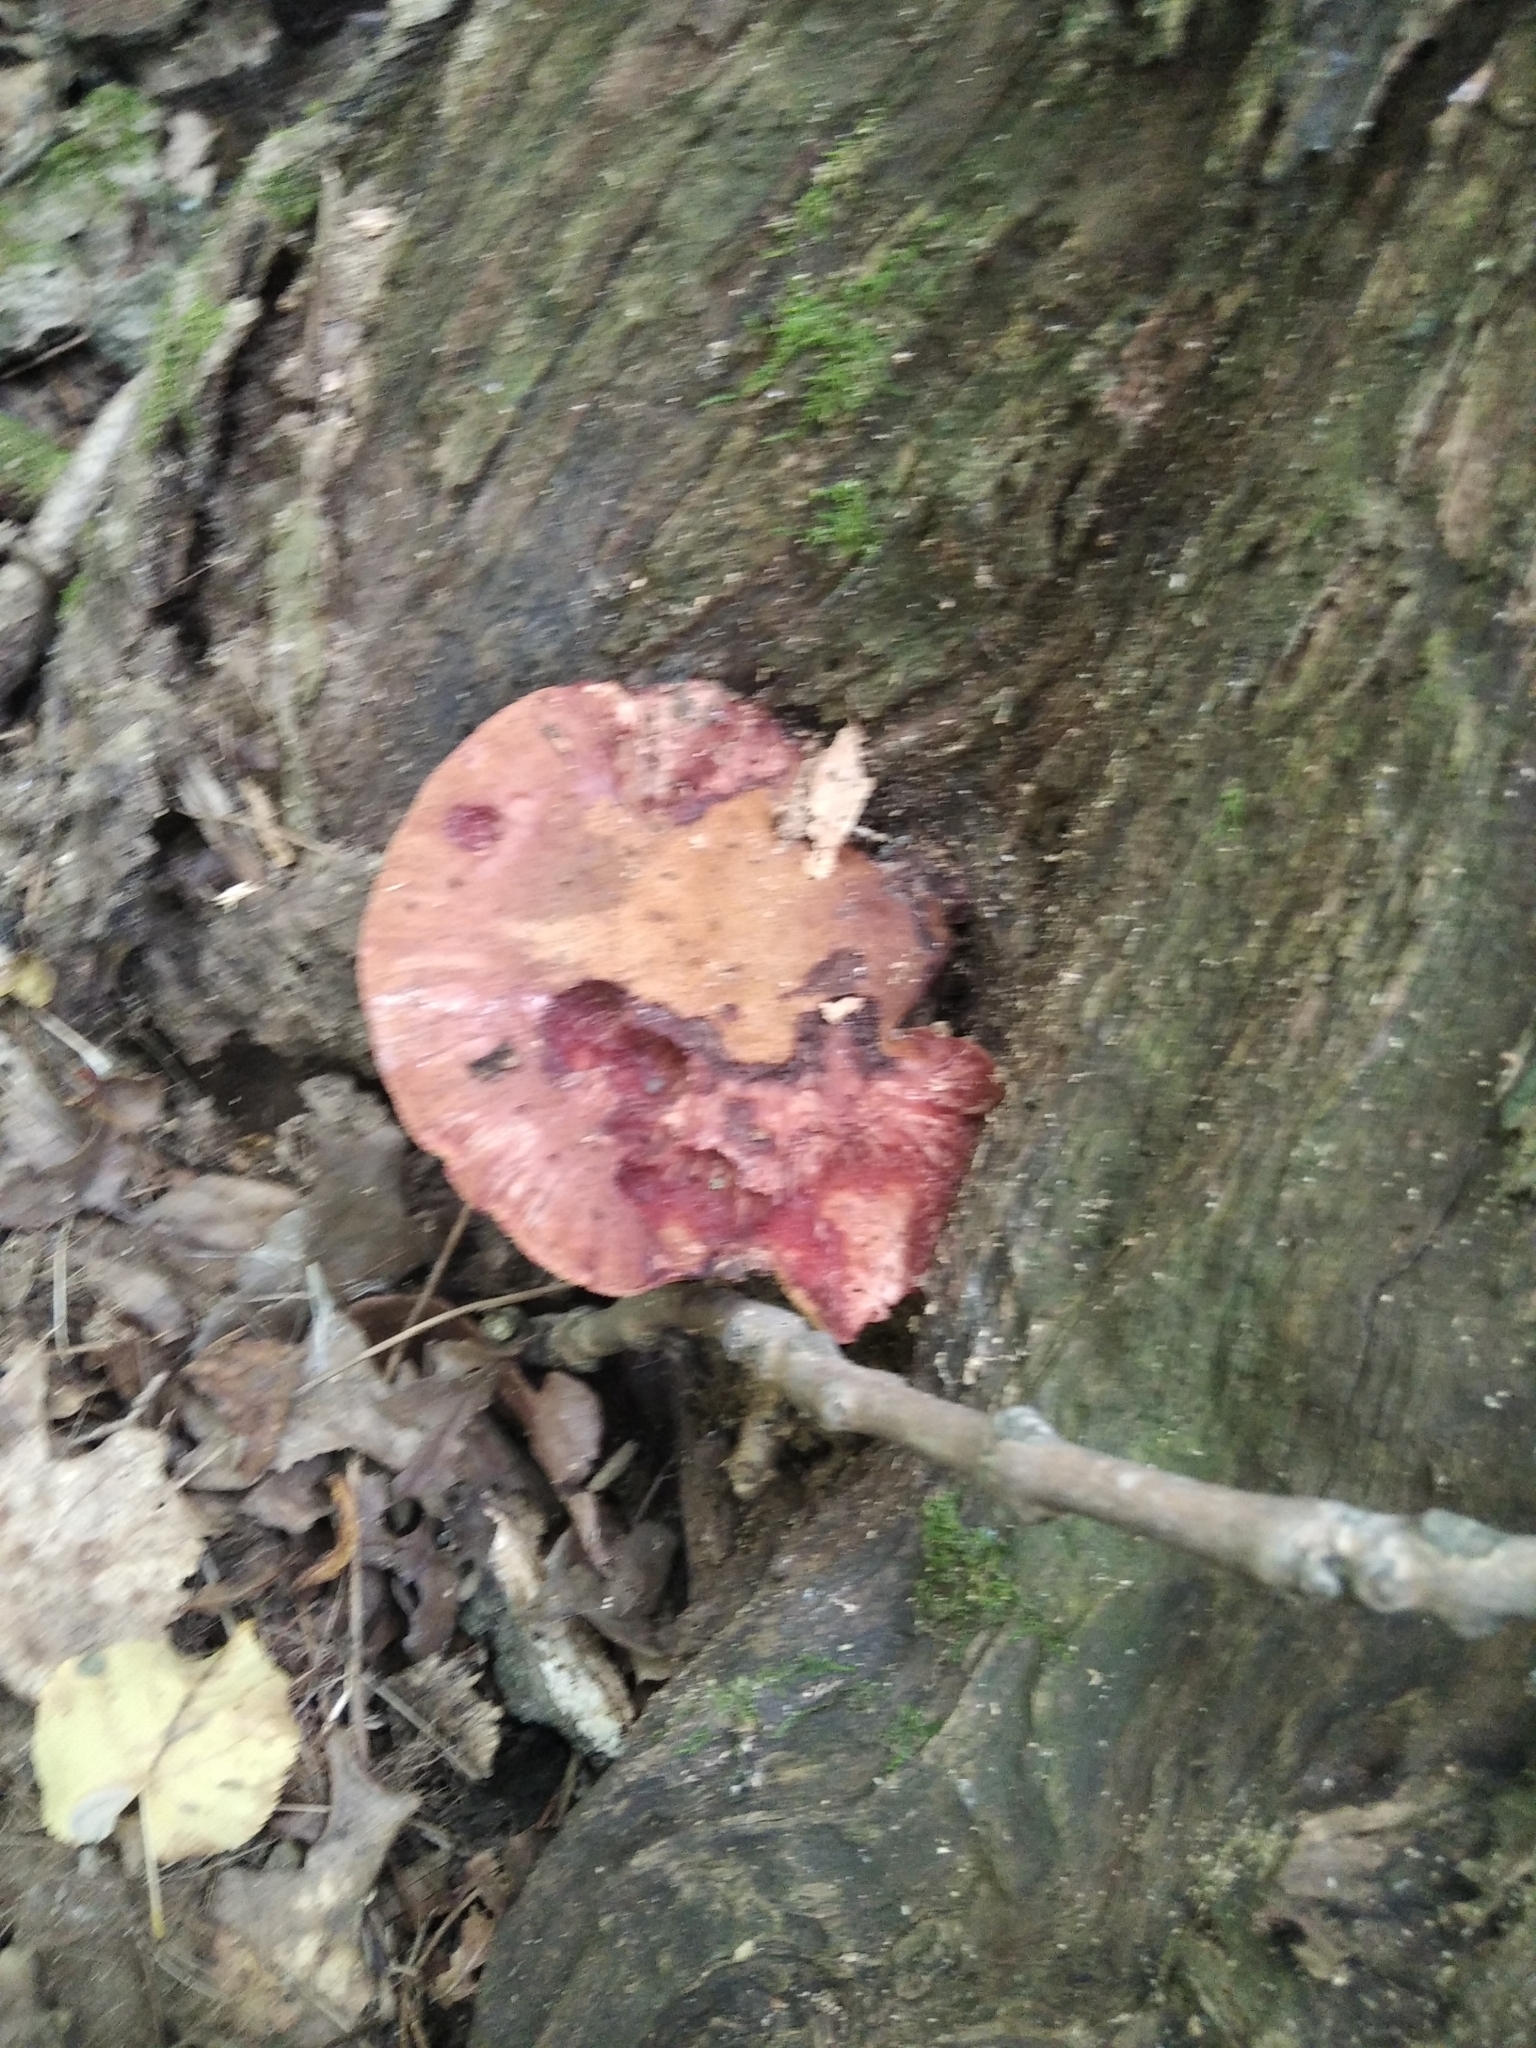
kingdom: Fungi
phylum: Basidiomycota
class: Agaricomycetes
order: Agaricales
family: Fistulinaceae
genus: Fistulina
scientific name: Fistulina hepatica
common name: Beef-steak fungus
